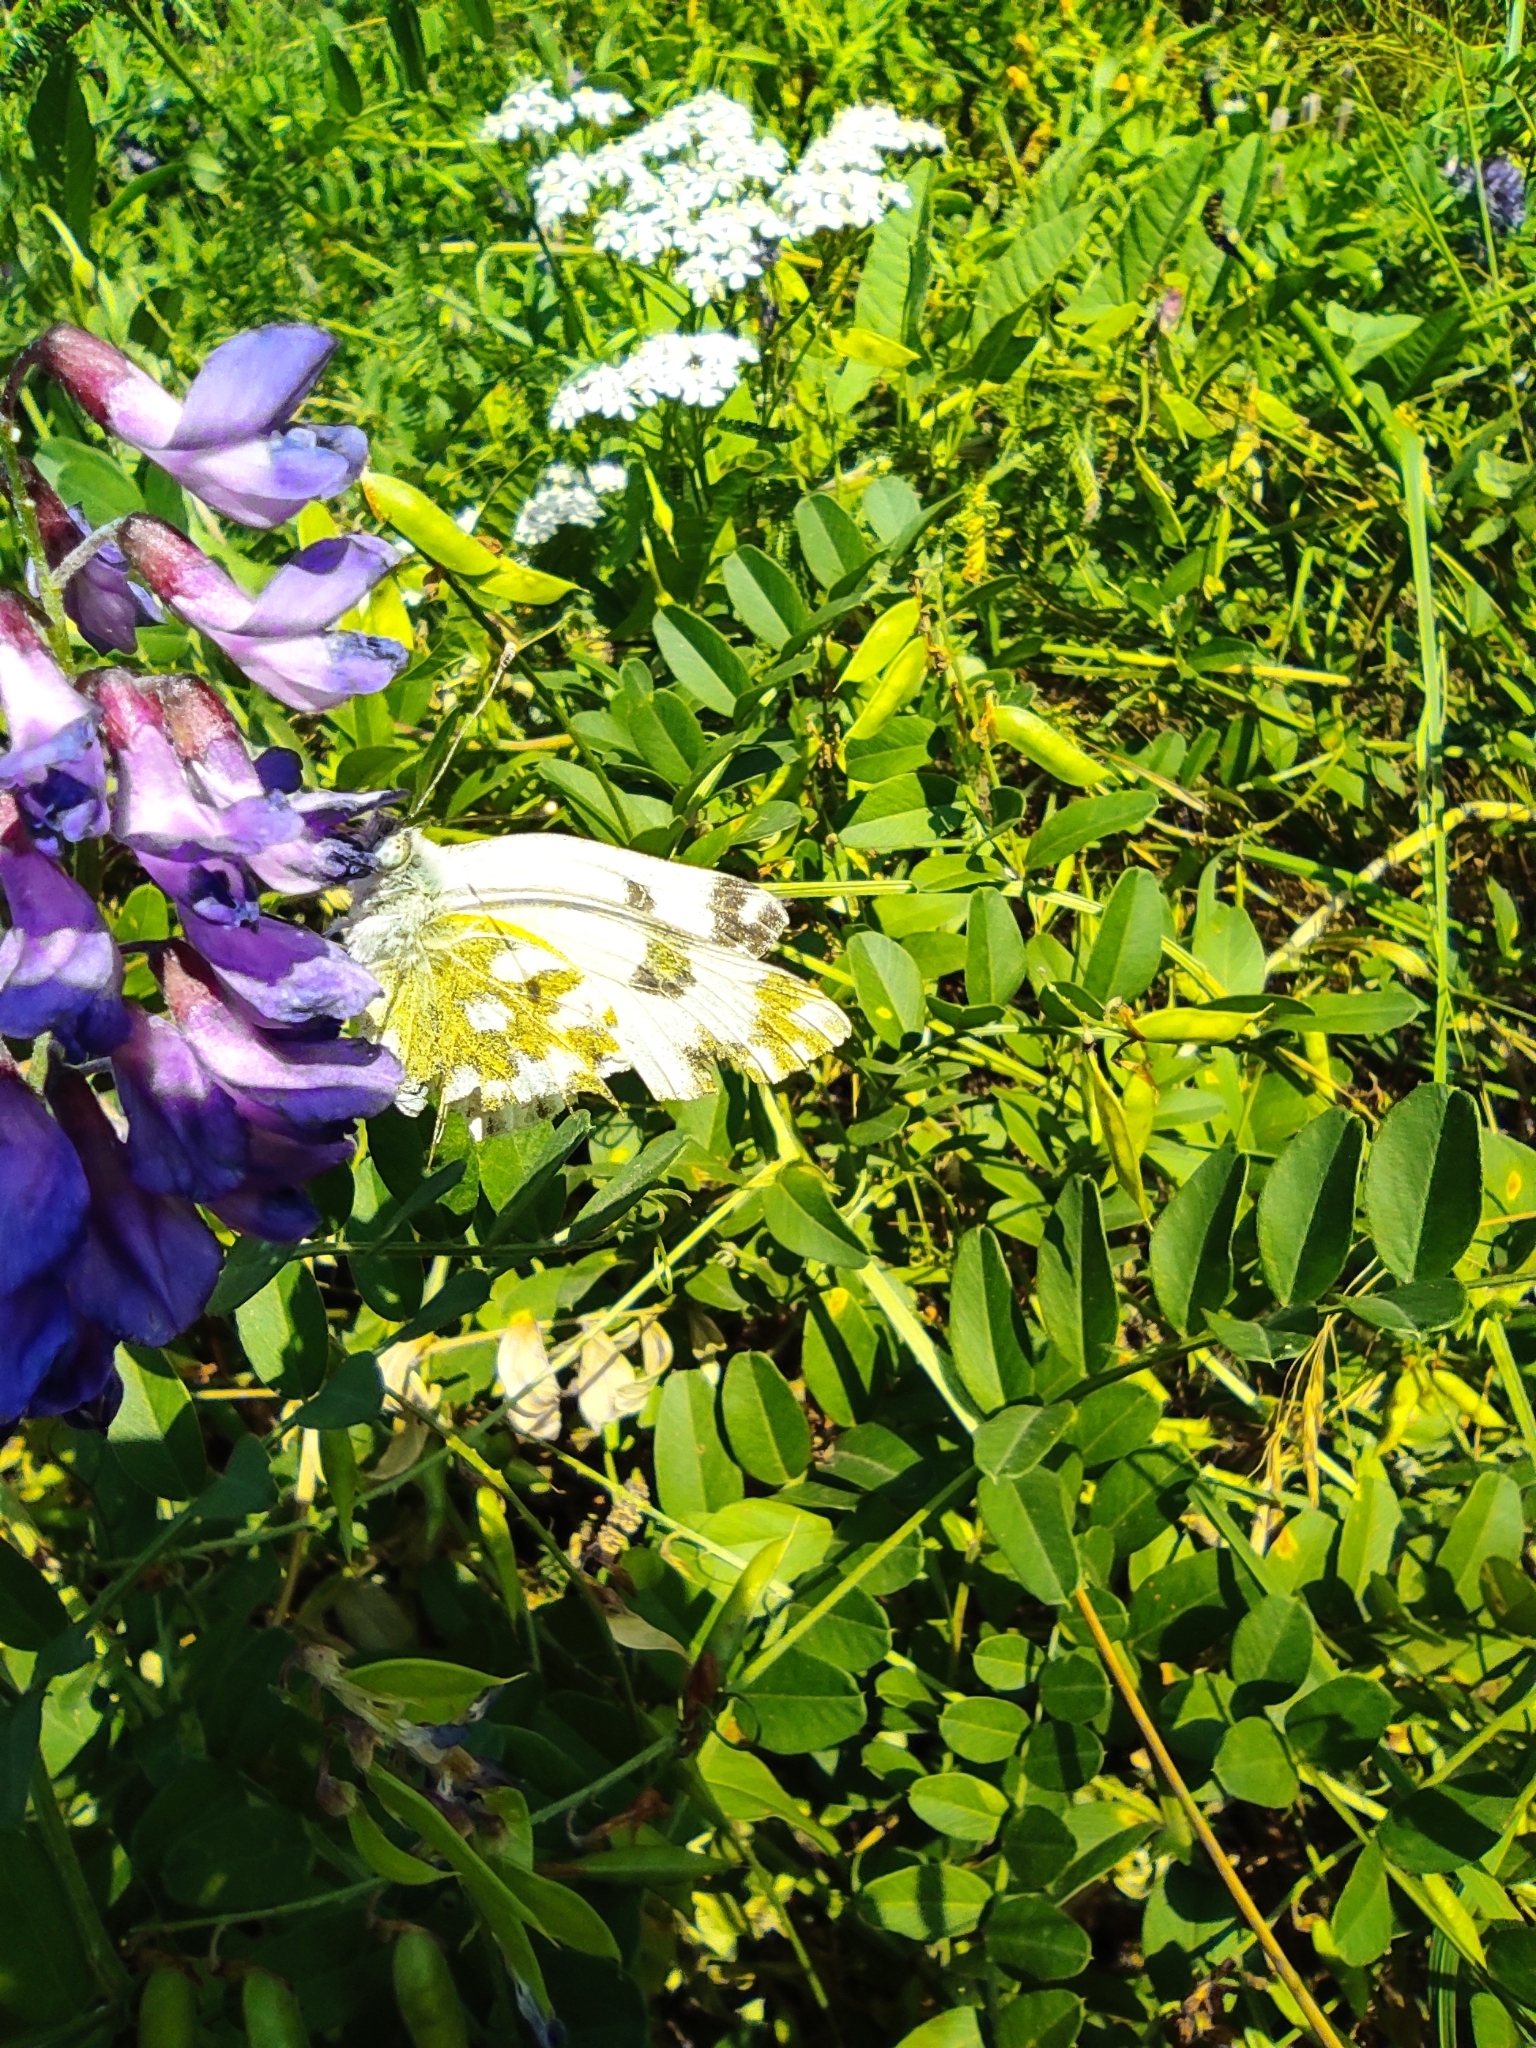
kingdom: Animalia
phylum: Arthropoda
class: Insecta
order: Lepidoptera
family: Pieridae
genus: Pontia
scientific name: Pontia edusa
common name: Eastern bath white
